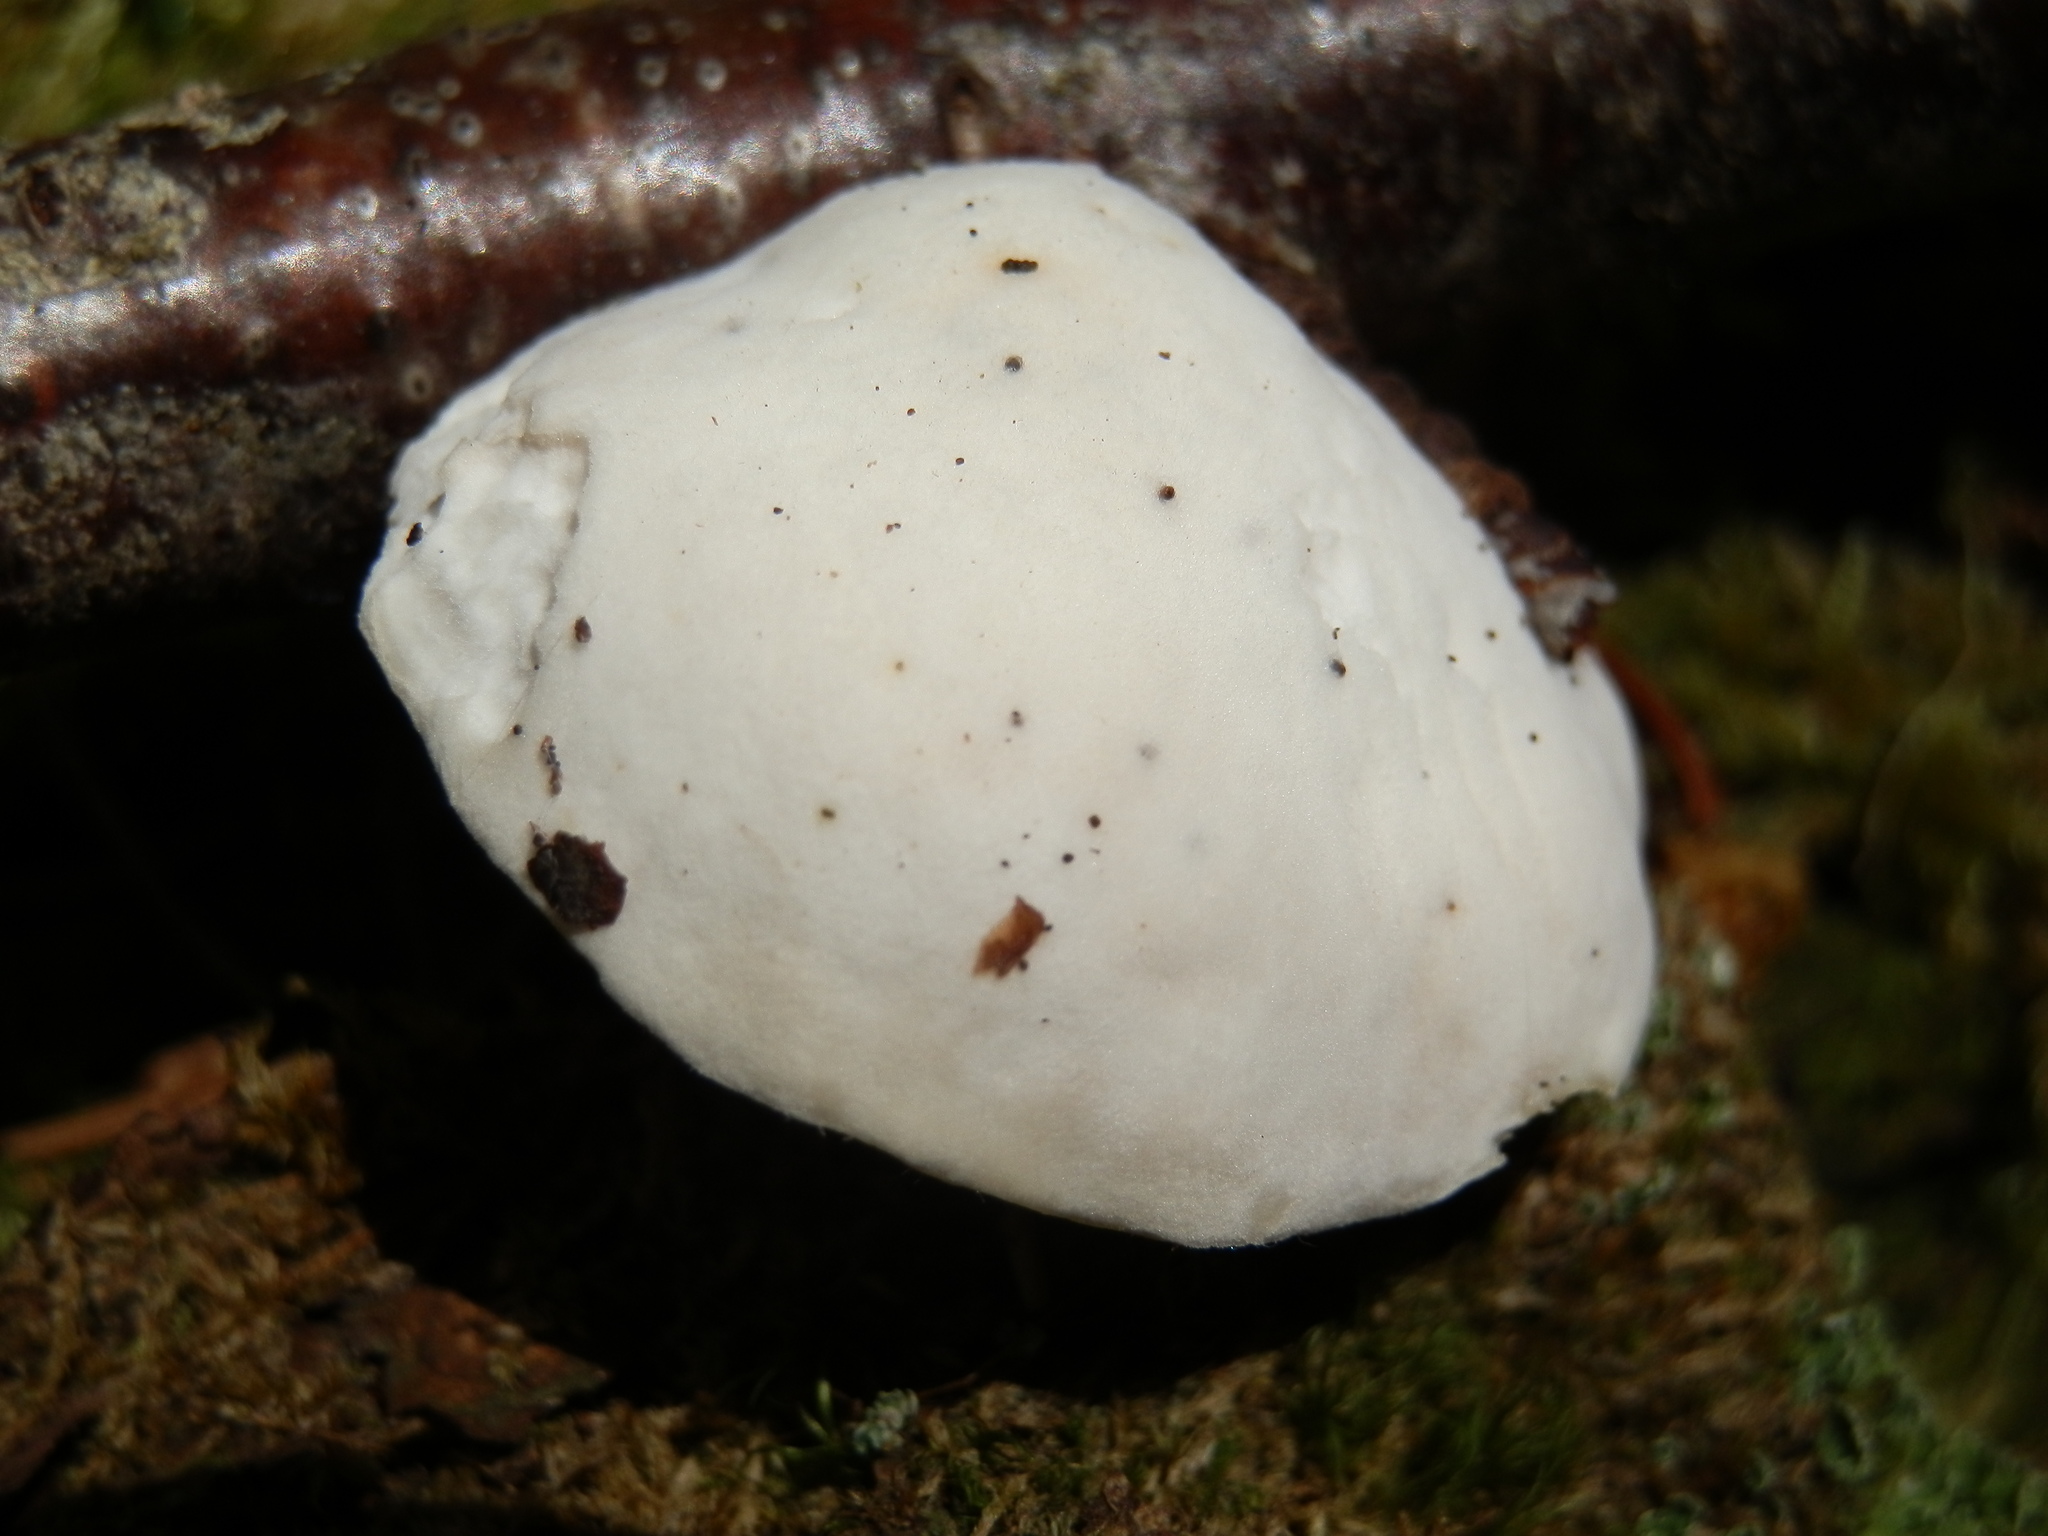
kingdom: Fungi
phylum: Basidiomycota
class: Agaricomycetes
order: Polyporales
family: Incrustoporiaceae
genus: Tyromyces
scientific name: Tyromyces chioneus
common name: White cheese polypore
